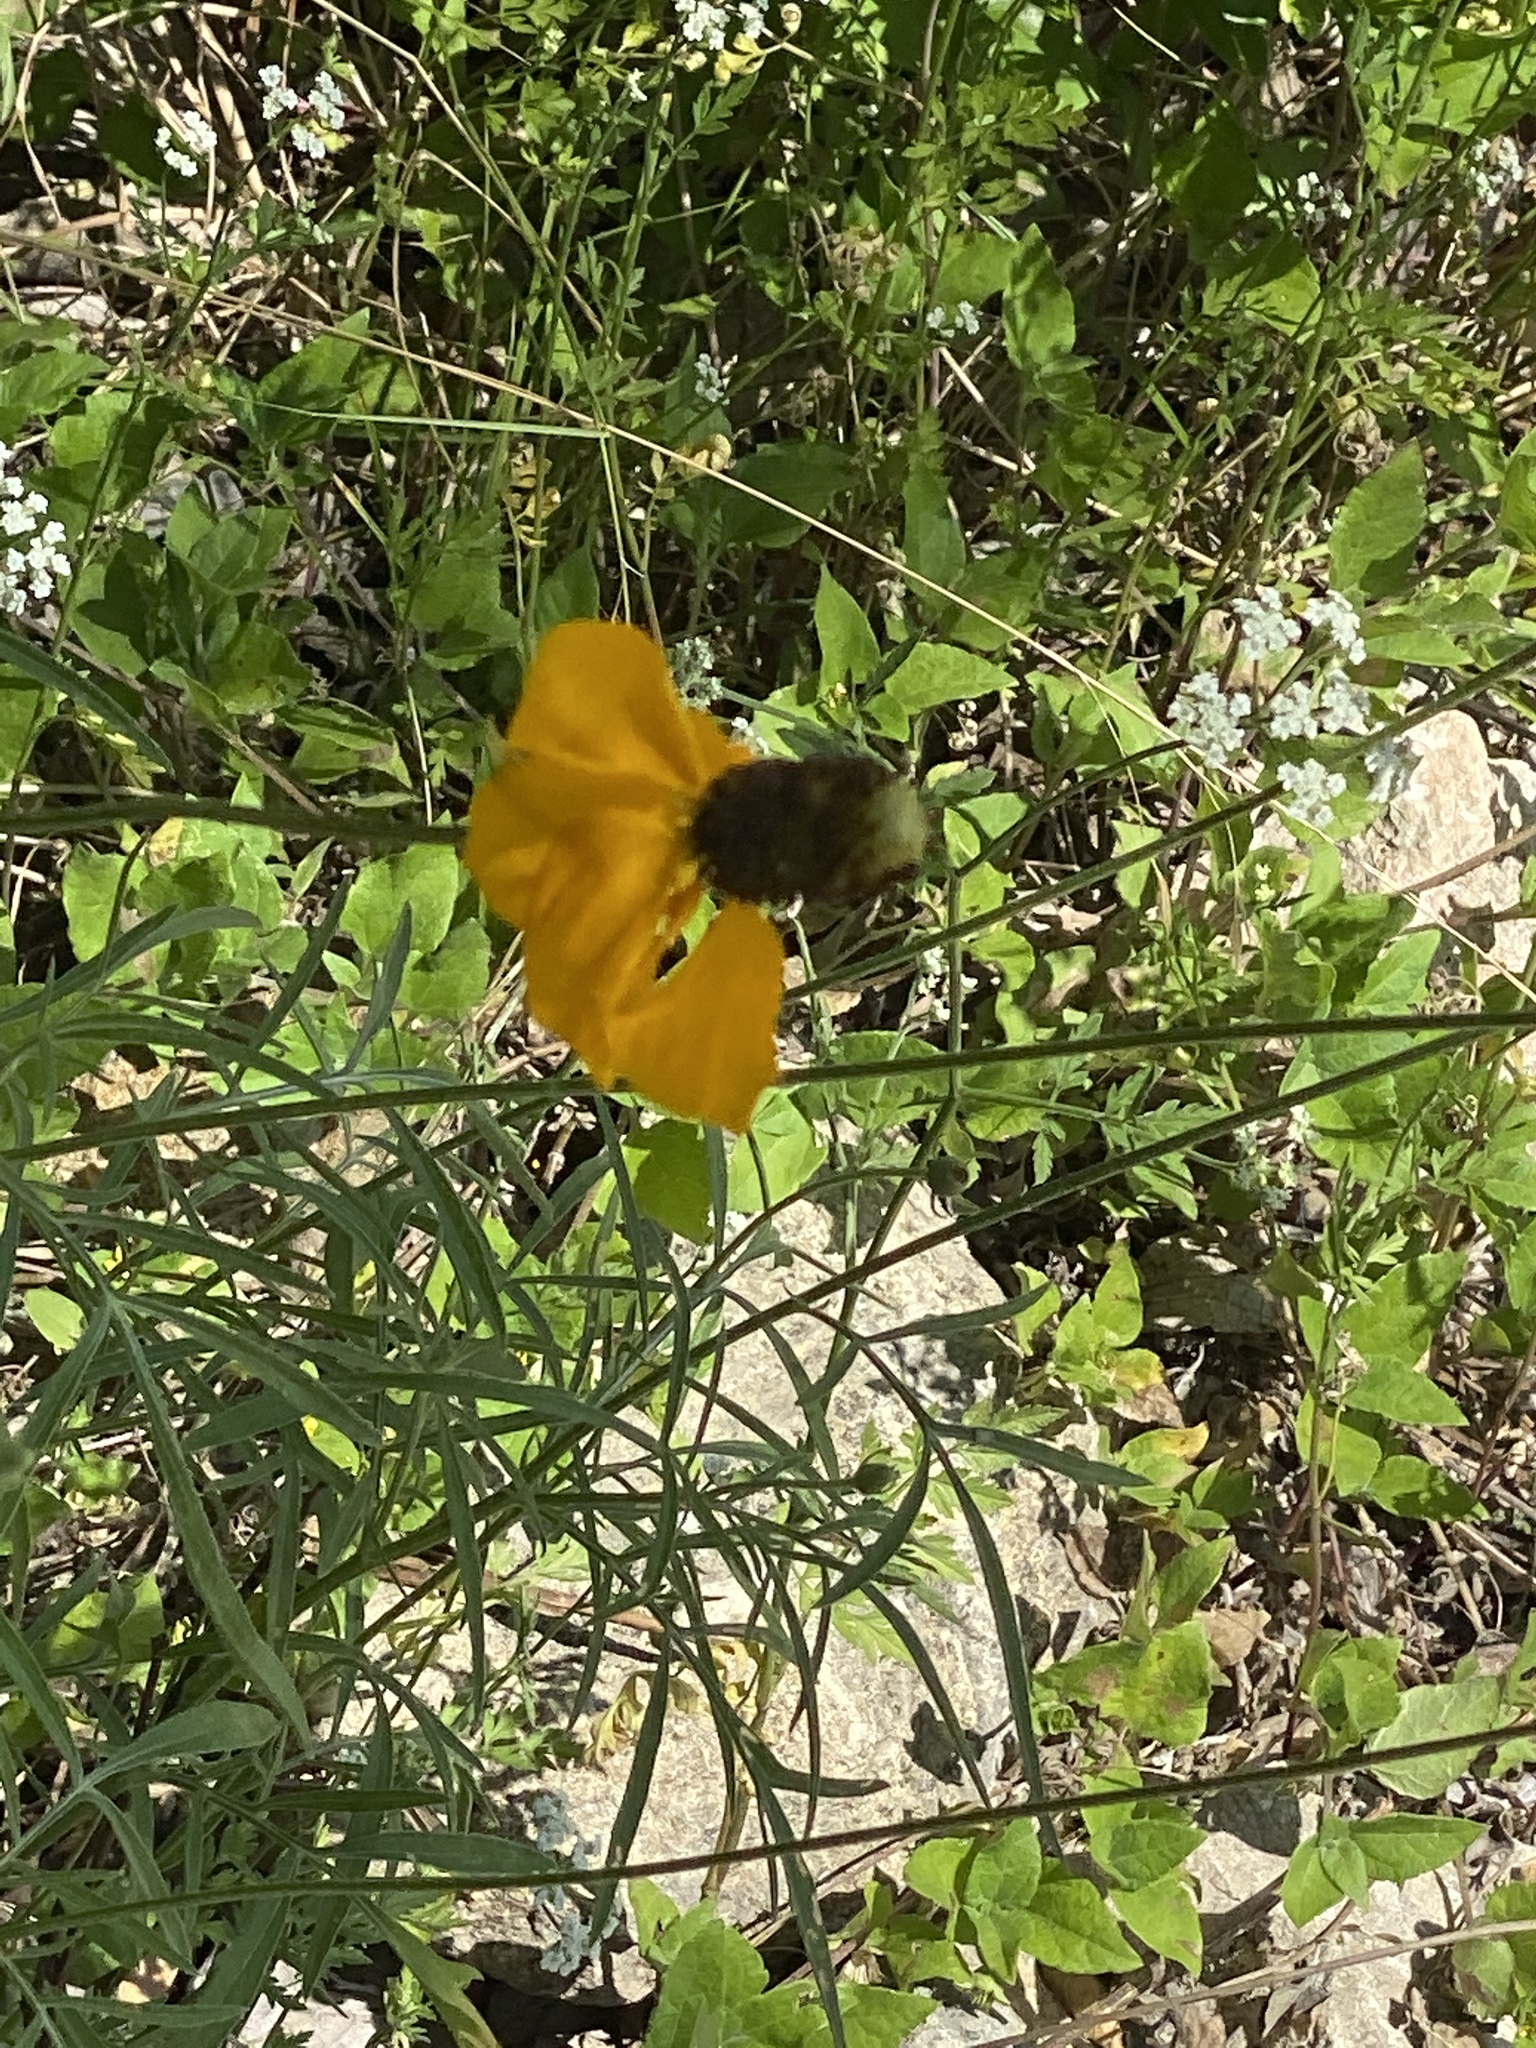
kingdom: Plantae
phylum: Tracheophyta
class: Magnoliopsida
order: Asterales
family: Asteraceae
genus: Ratibida
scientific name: Ratibida columnifera
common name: Prairie coneflower
